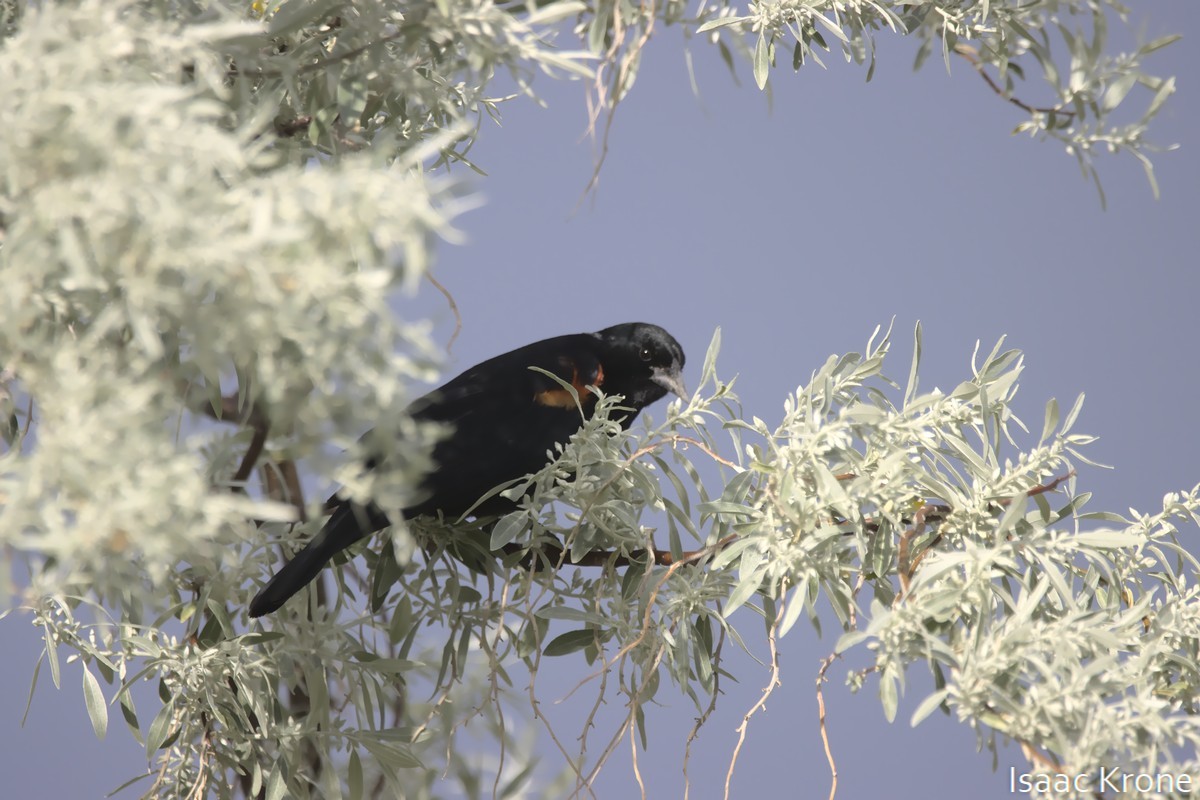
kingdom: Animalia
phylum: Chordata
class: Aves
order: Passeriformes
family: Icteridae
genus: Agelaius
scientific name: Agelaius phoeniceus
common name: Red-winged blackbird
